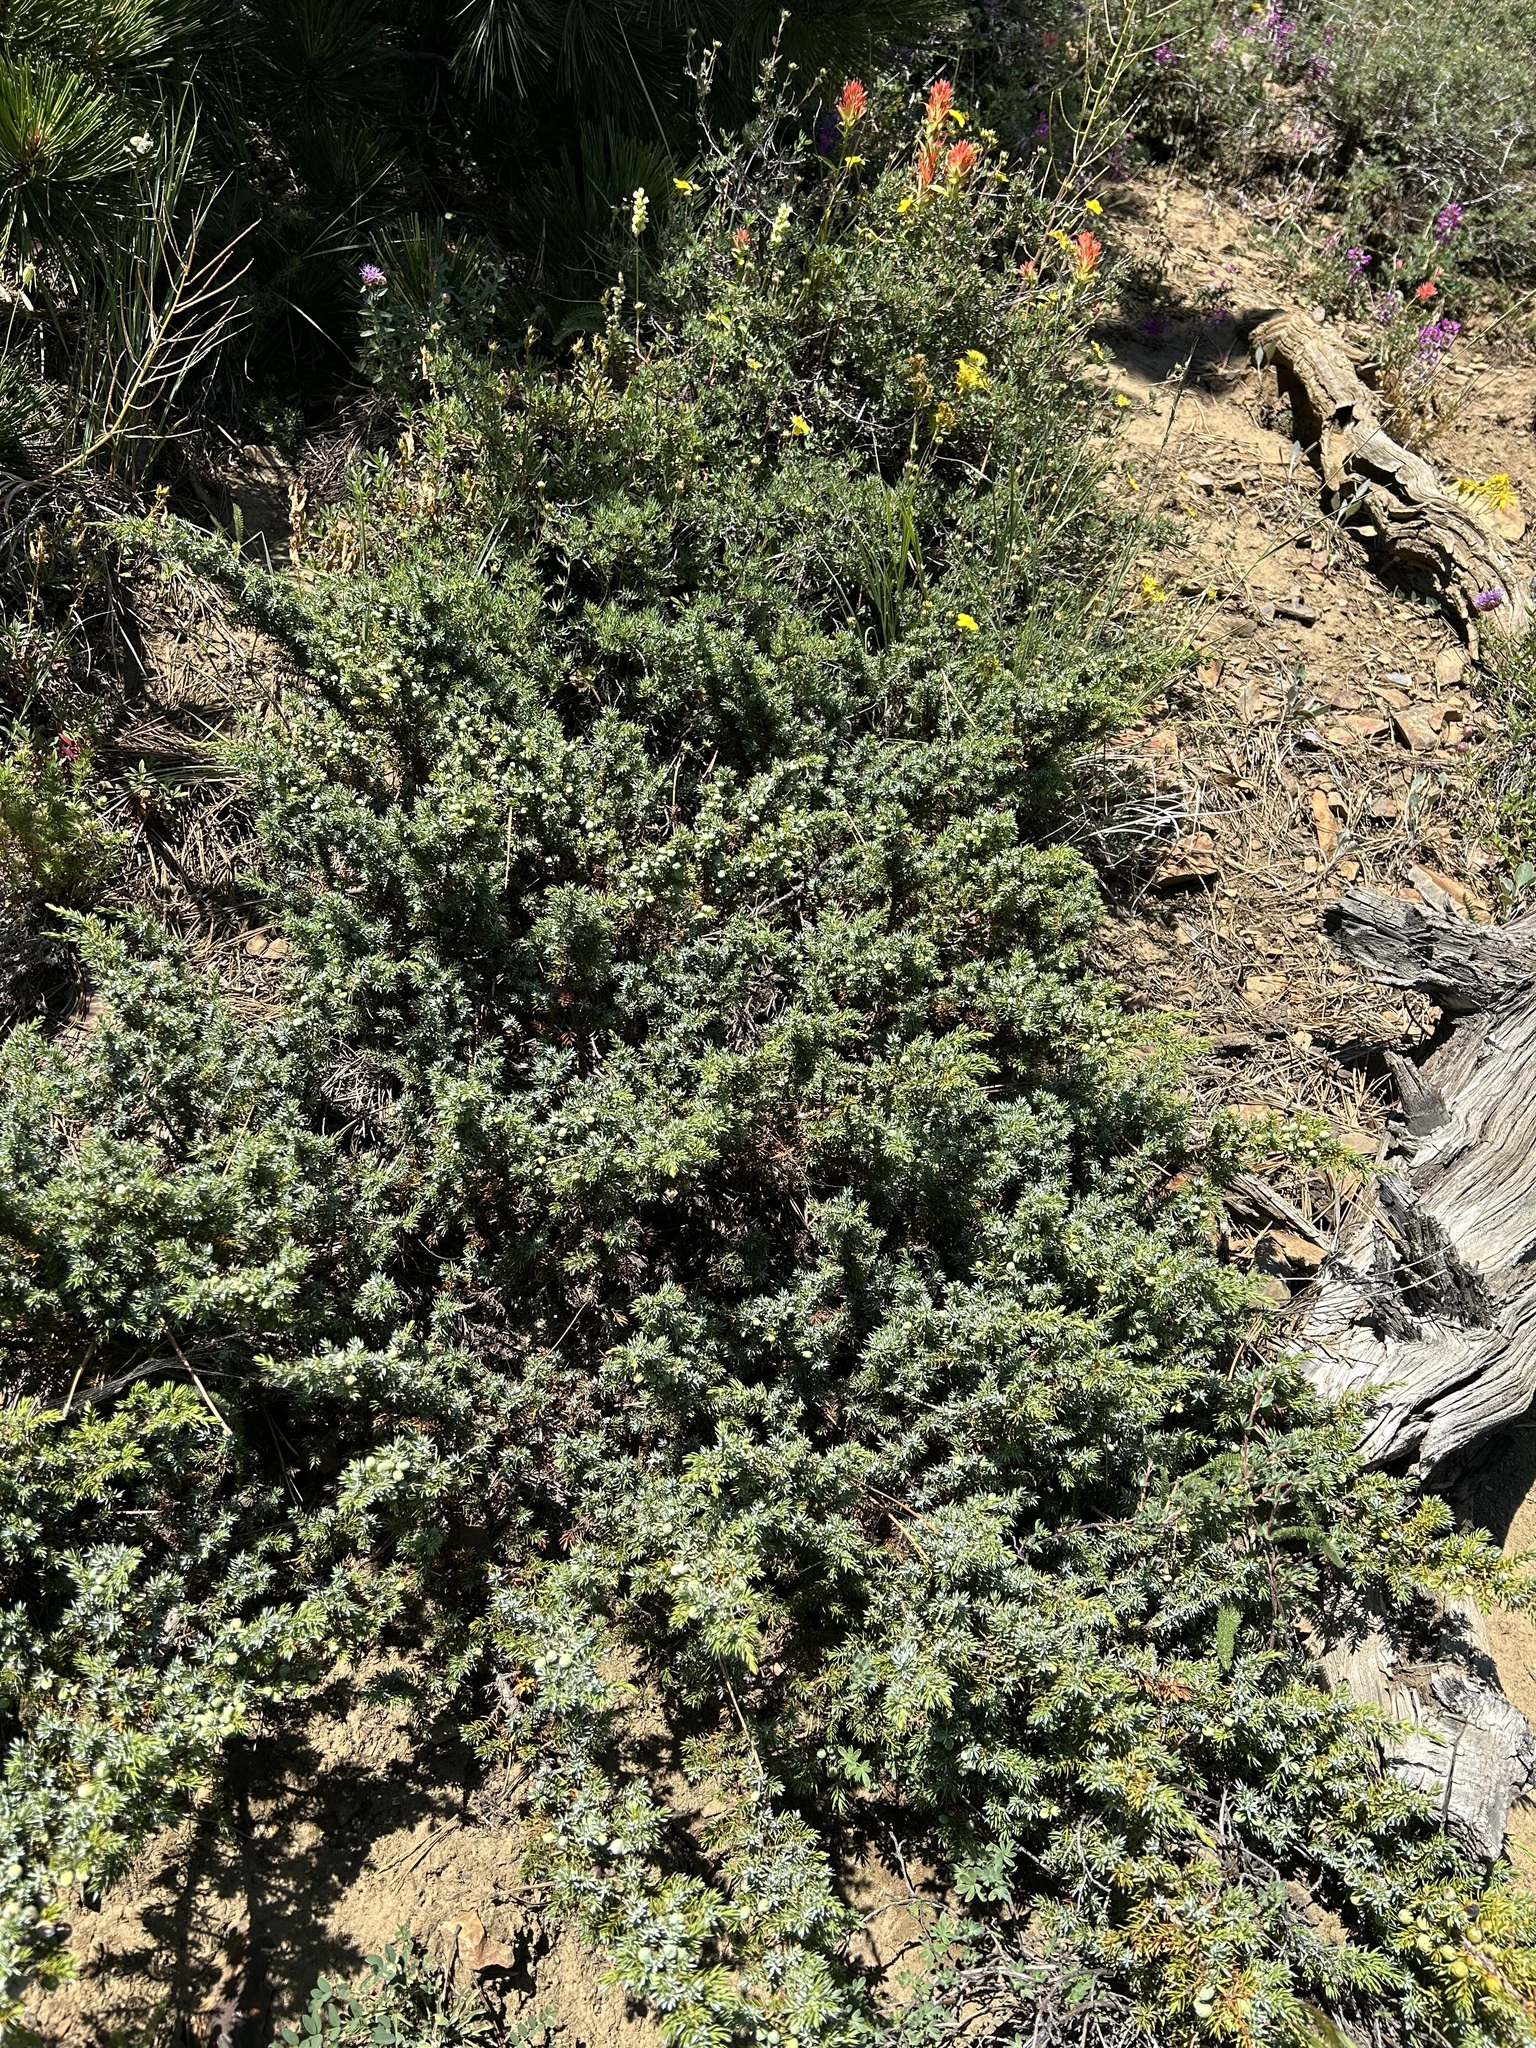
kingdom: Plantae
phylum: Tracheophyta
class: Pinopsida
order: Pinales
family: Cupressaceae
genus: Juniperus
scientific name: Juniperus communis
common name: Common juniper
